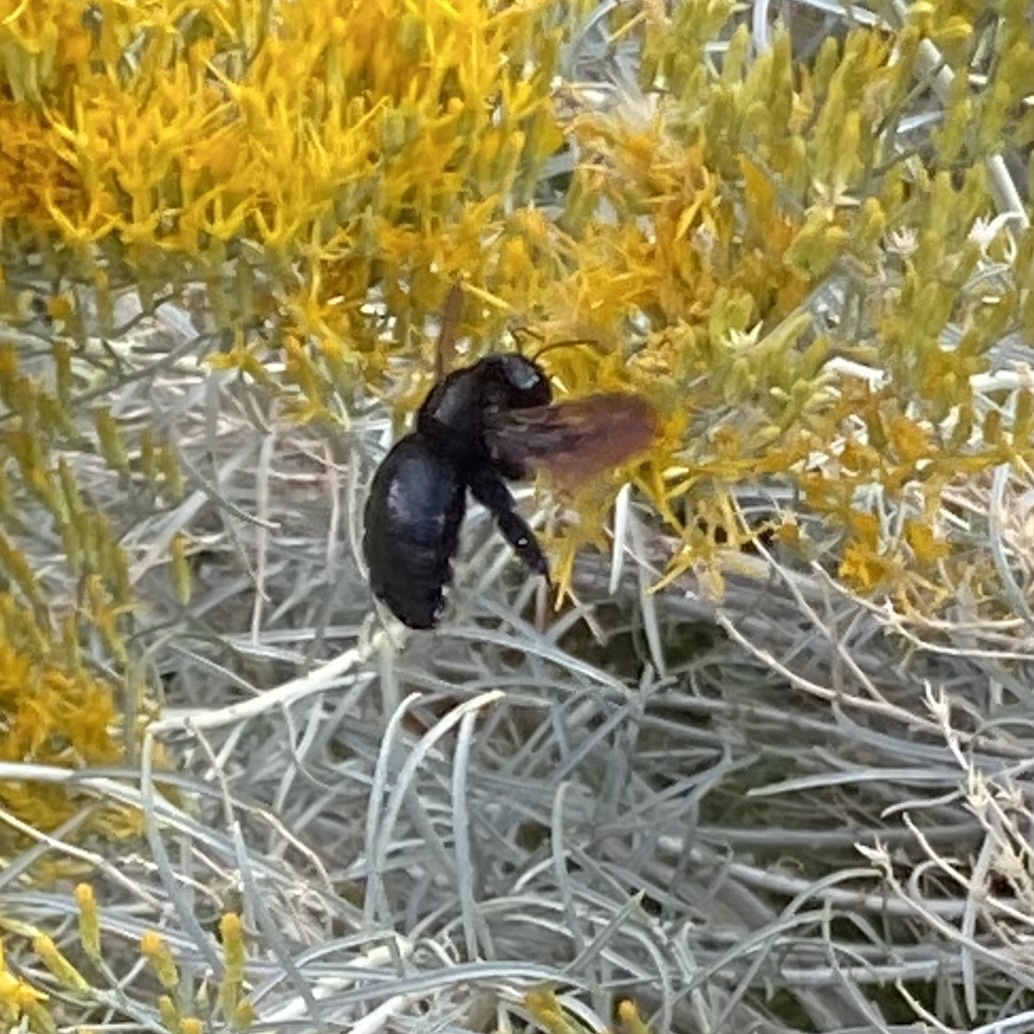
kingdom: Animalia
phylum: Arthropoda
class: Insecta
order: Hymenoptera
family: Apidae
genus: Xylocopa
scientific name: Xylocopa sonorina
